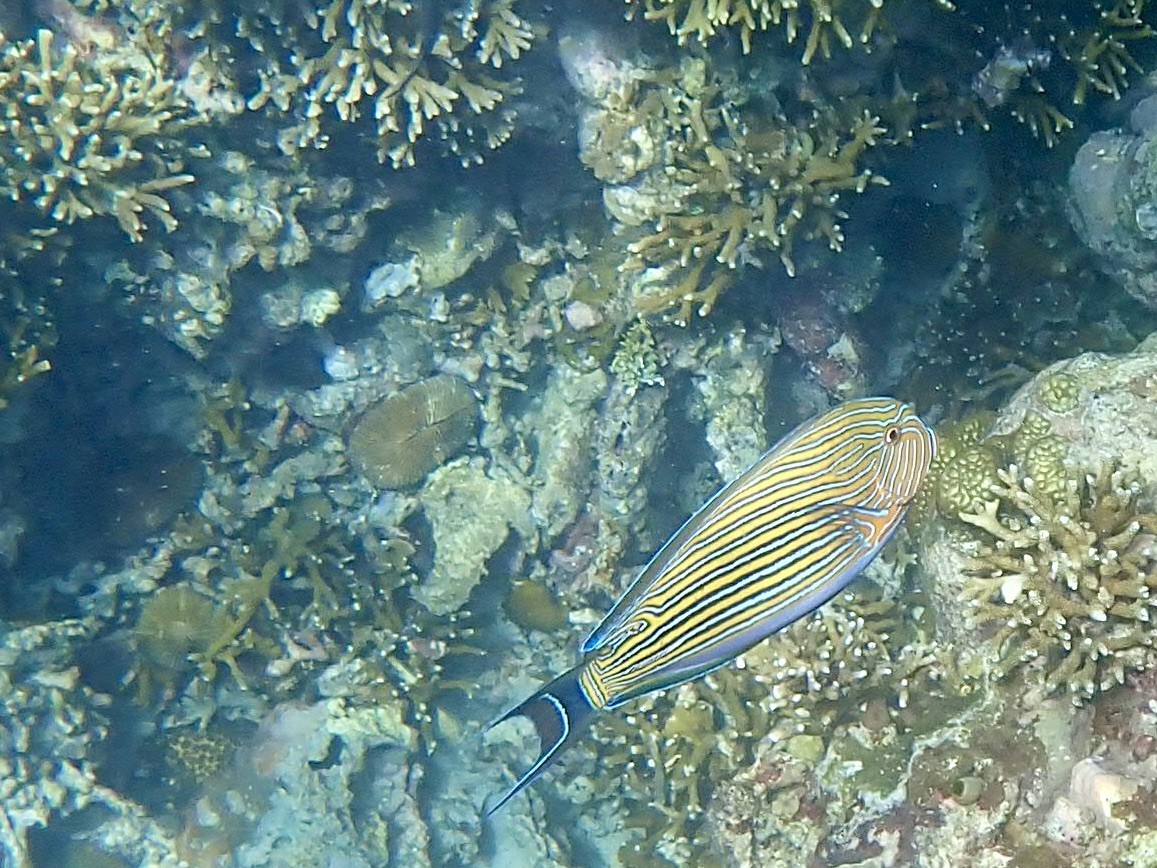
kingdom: Animalia
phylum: Chordata
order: Perciformes
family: Acanthuridae
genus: Acanthurus
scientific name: Acanthurus lineatus
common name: Striped surgeonfish
